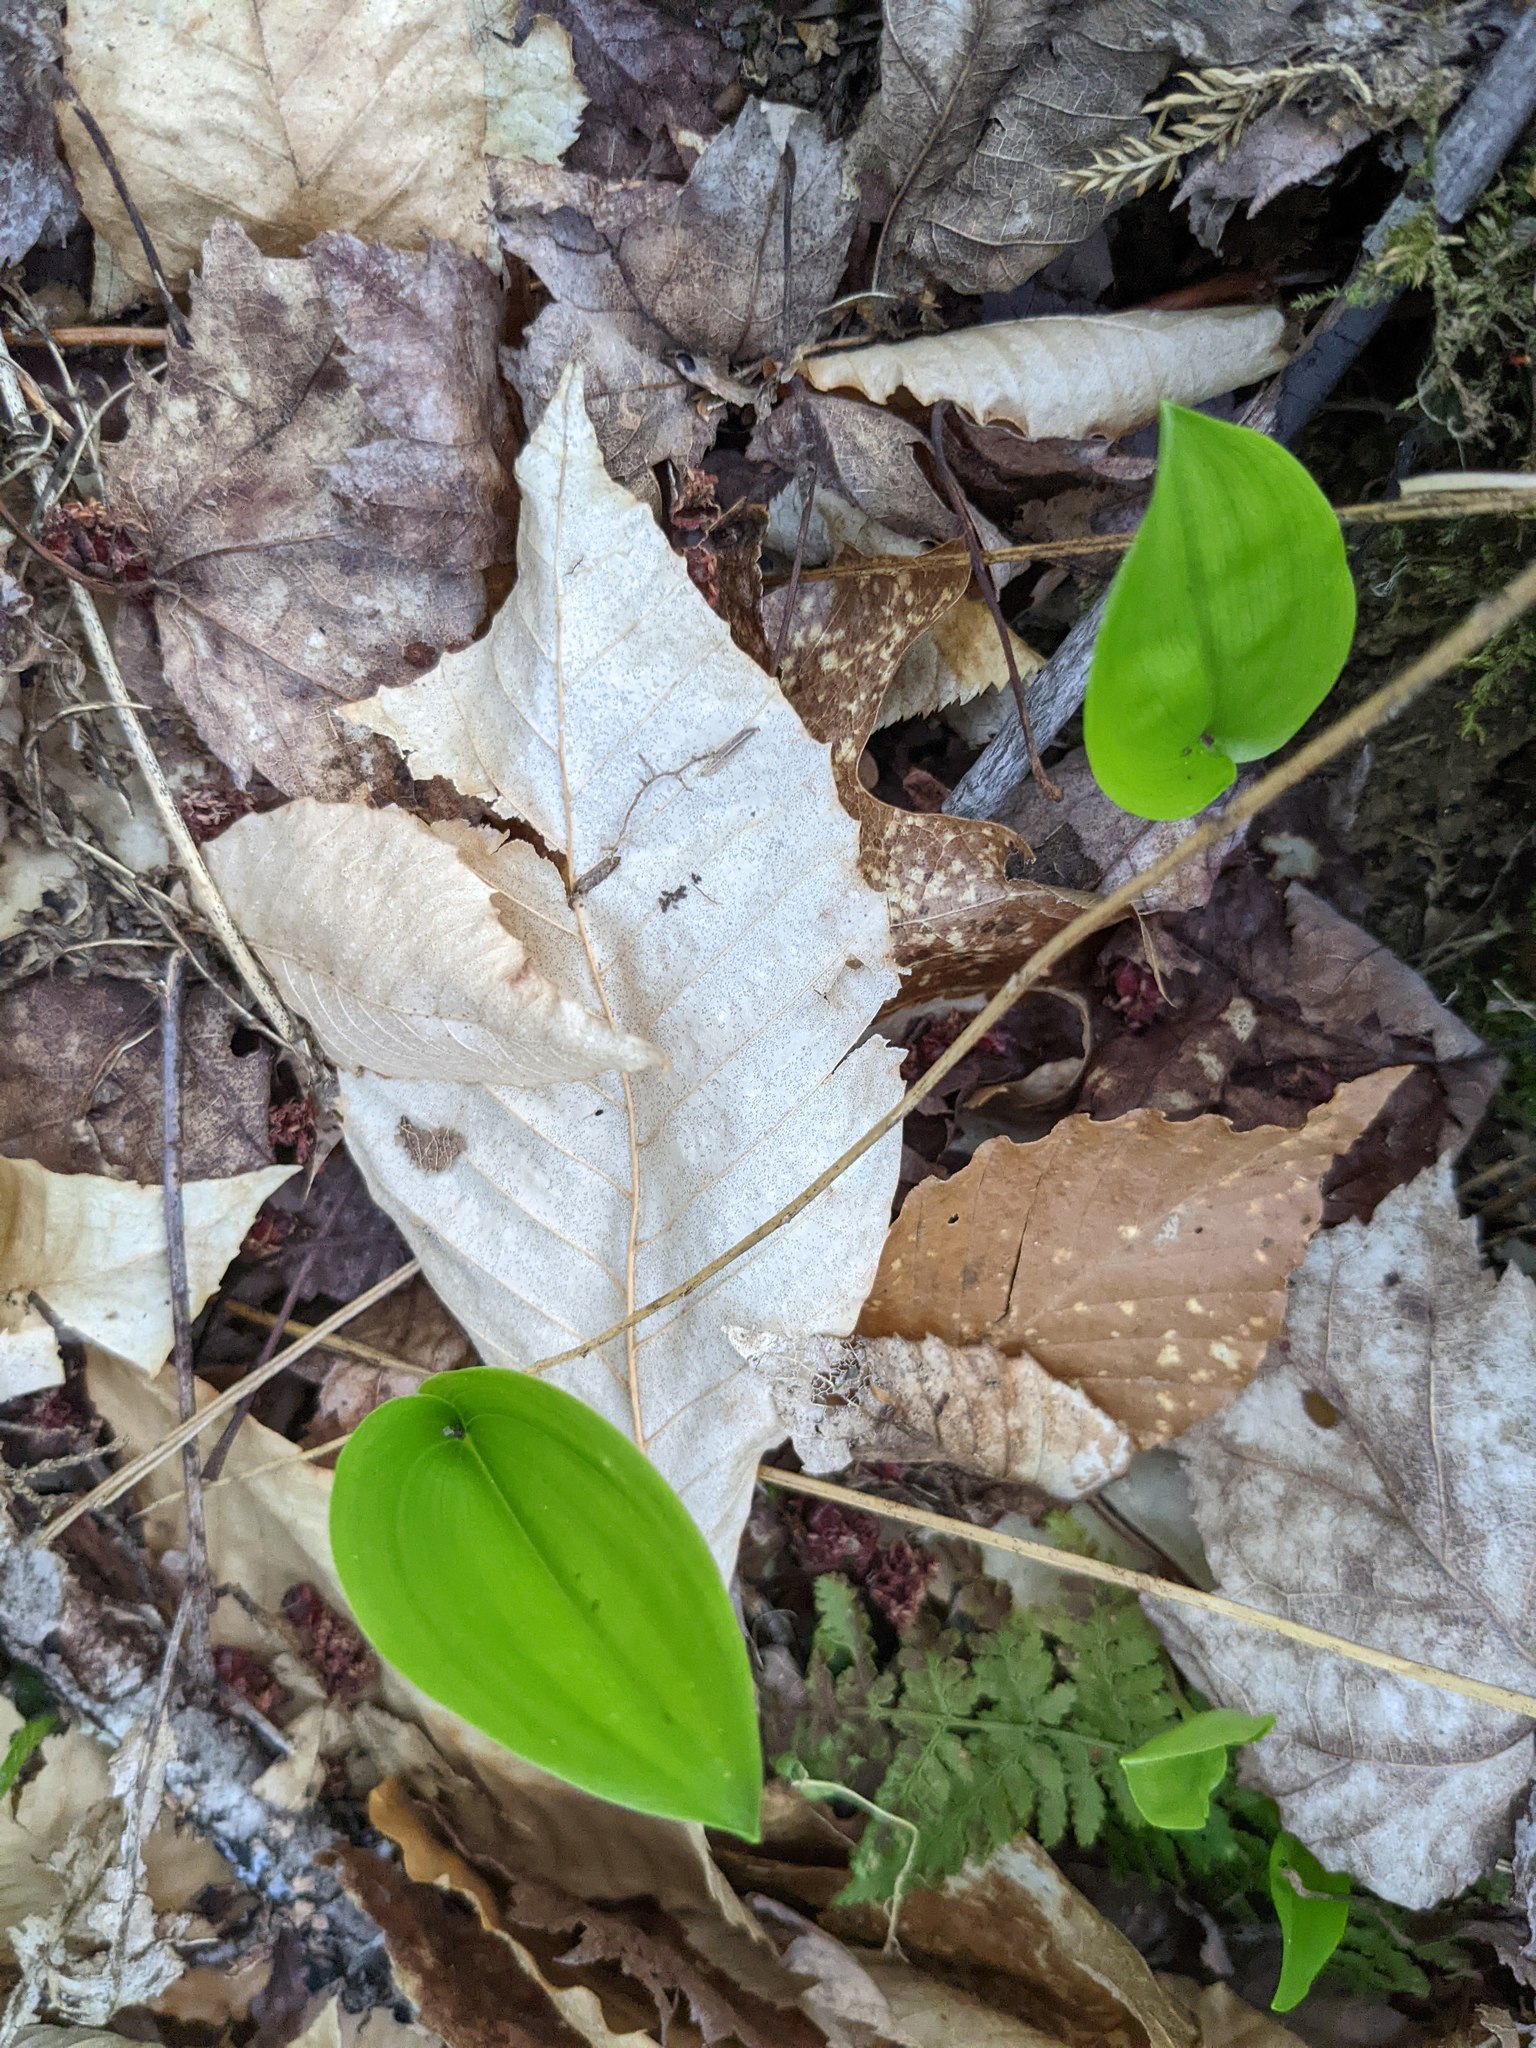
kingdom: Plantae
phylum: Tracheophyta
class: Liliopsida
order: Asparagales
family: Asparagaceae
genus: Maianthemum
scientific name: Maianthemum canadense
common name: False lily-of-the-valley
